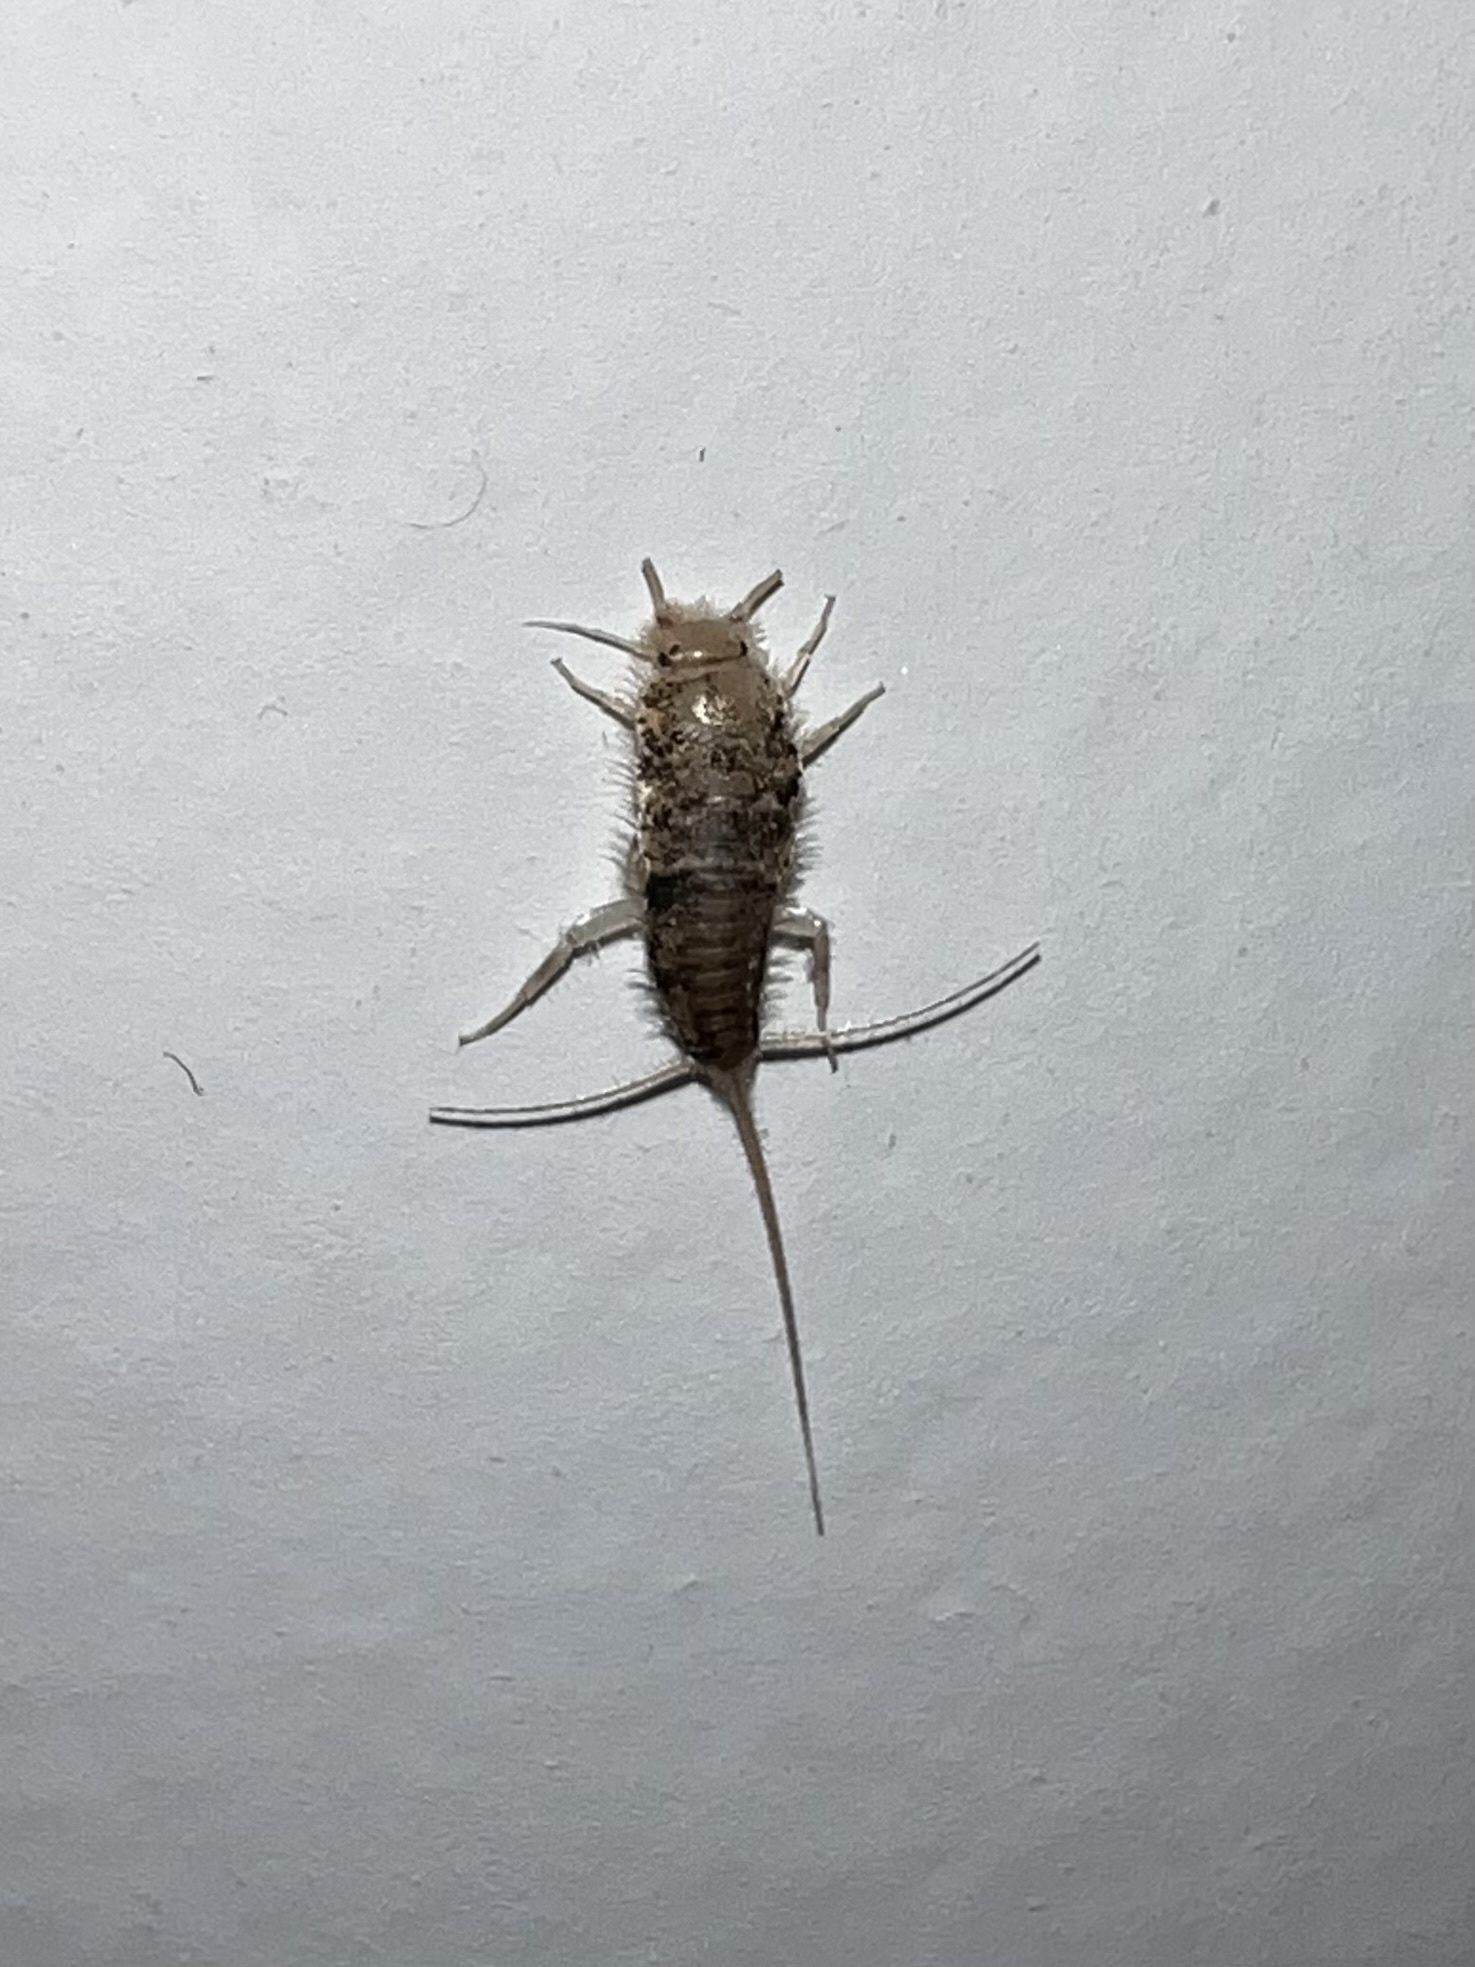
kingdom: Animalia
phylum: Arthropoda
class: Insecta
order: Zygentoma
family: Lepismatidae
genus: Thermobia
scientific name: Thermobia domestica
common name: Firebrat
